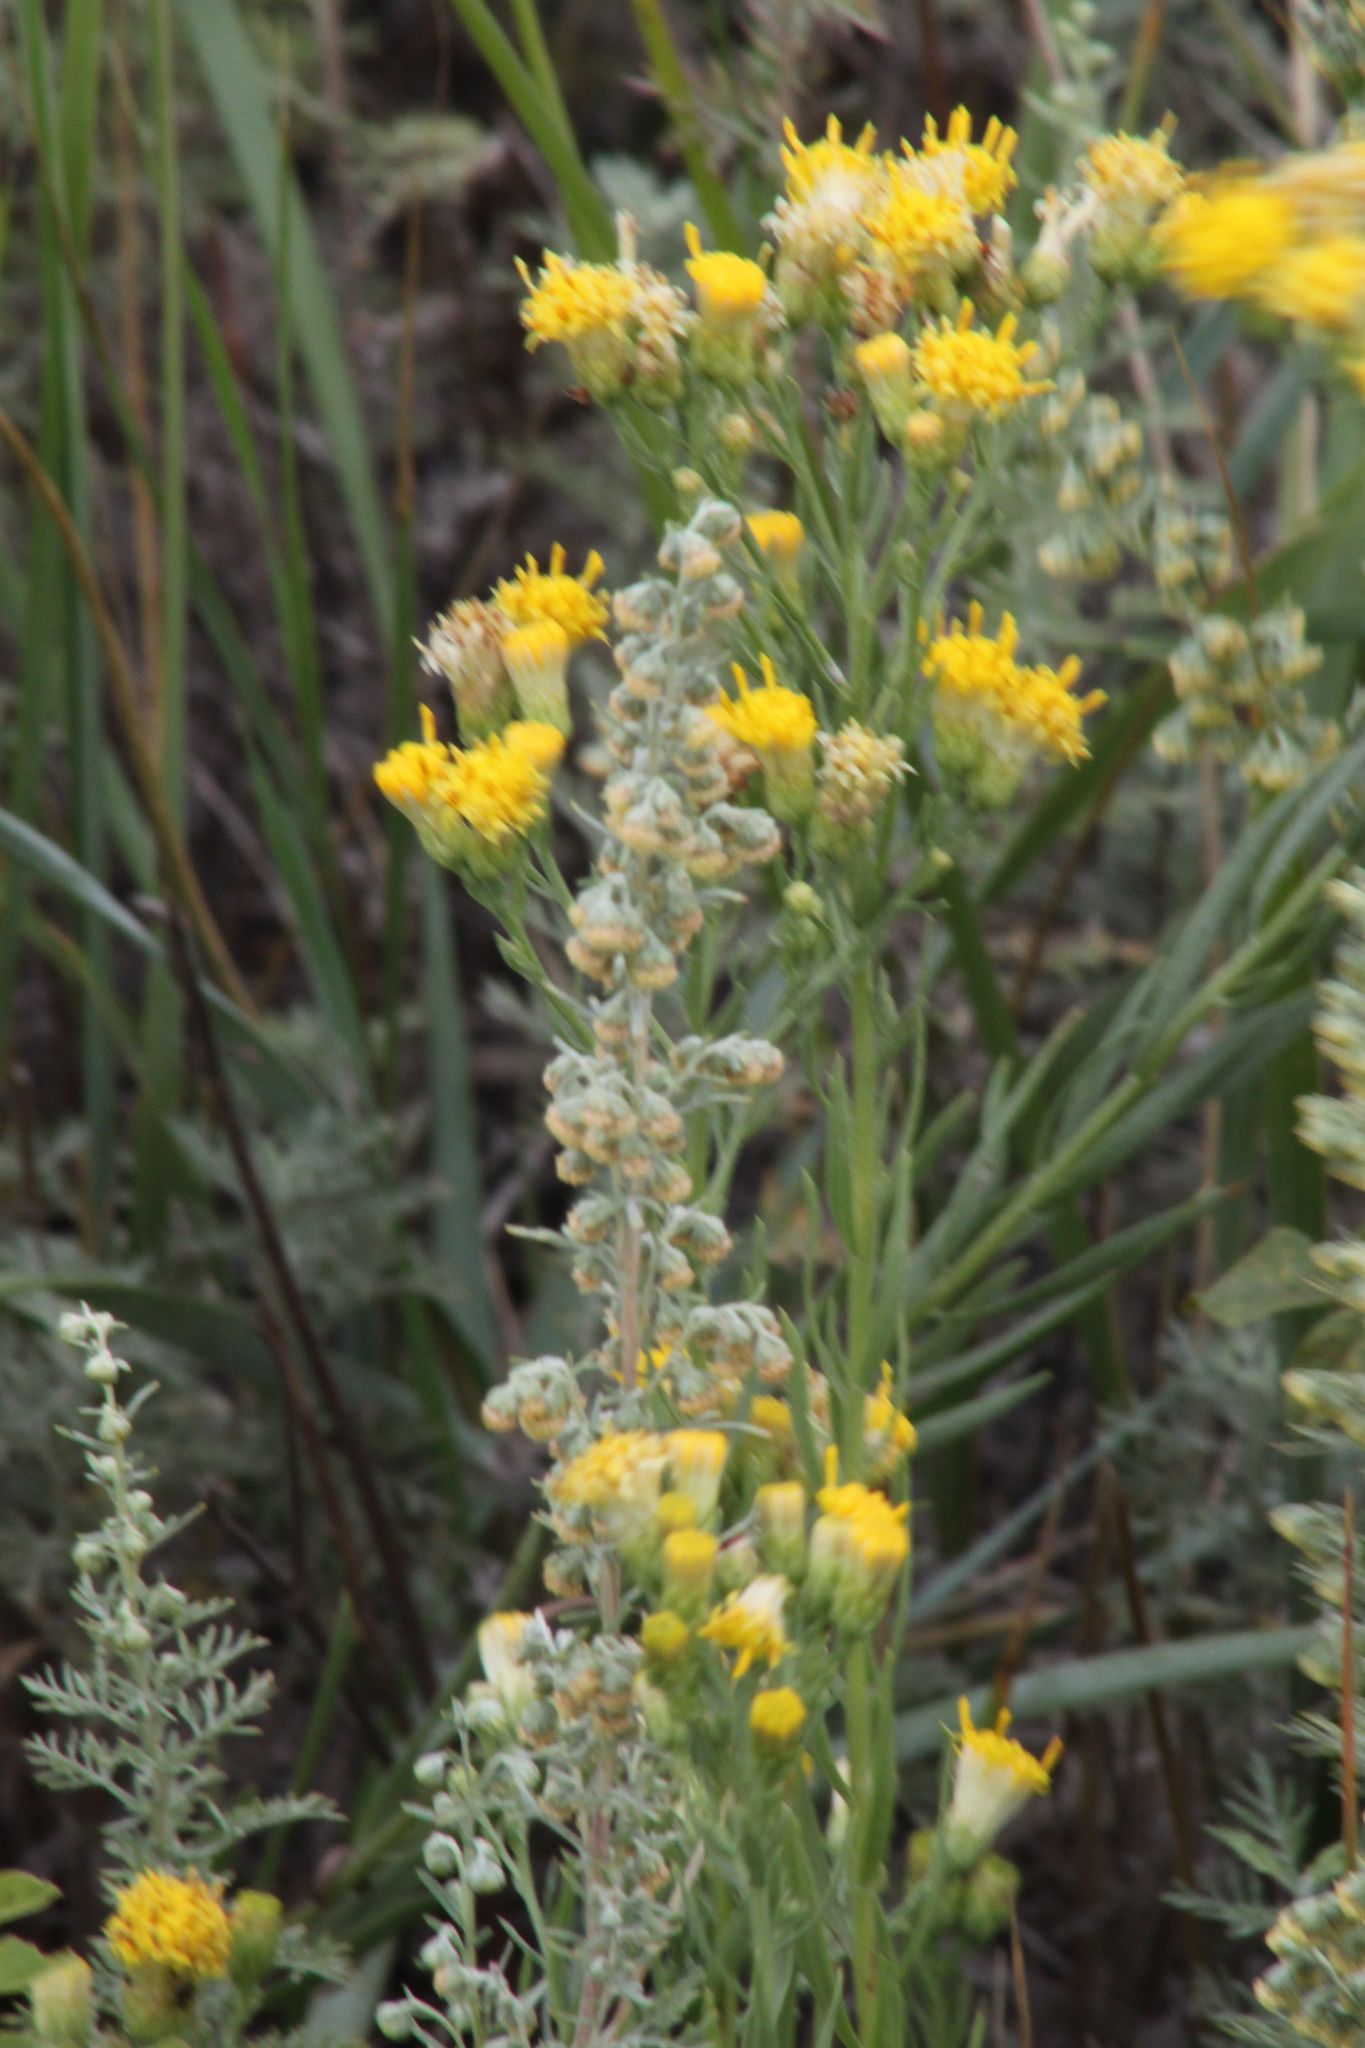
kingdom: Plantae
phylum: Tracheophyta
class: Magnoliopsida
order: Asterales
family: Asteraceae
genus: Galatella
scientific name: Galatella villosa
